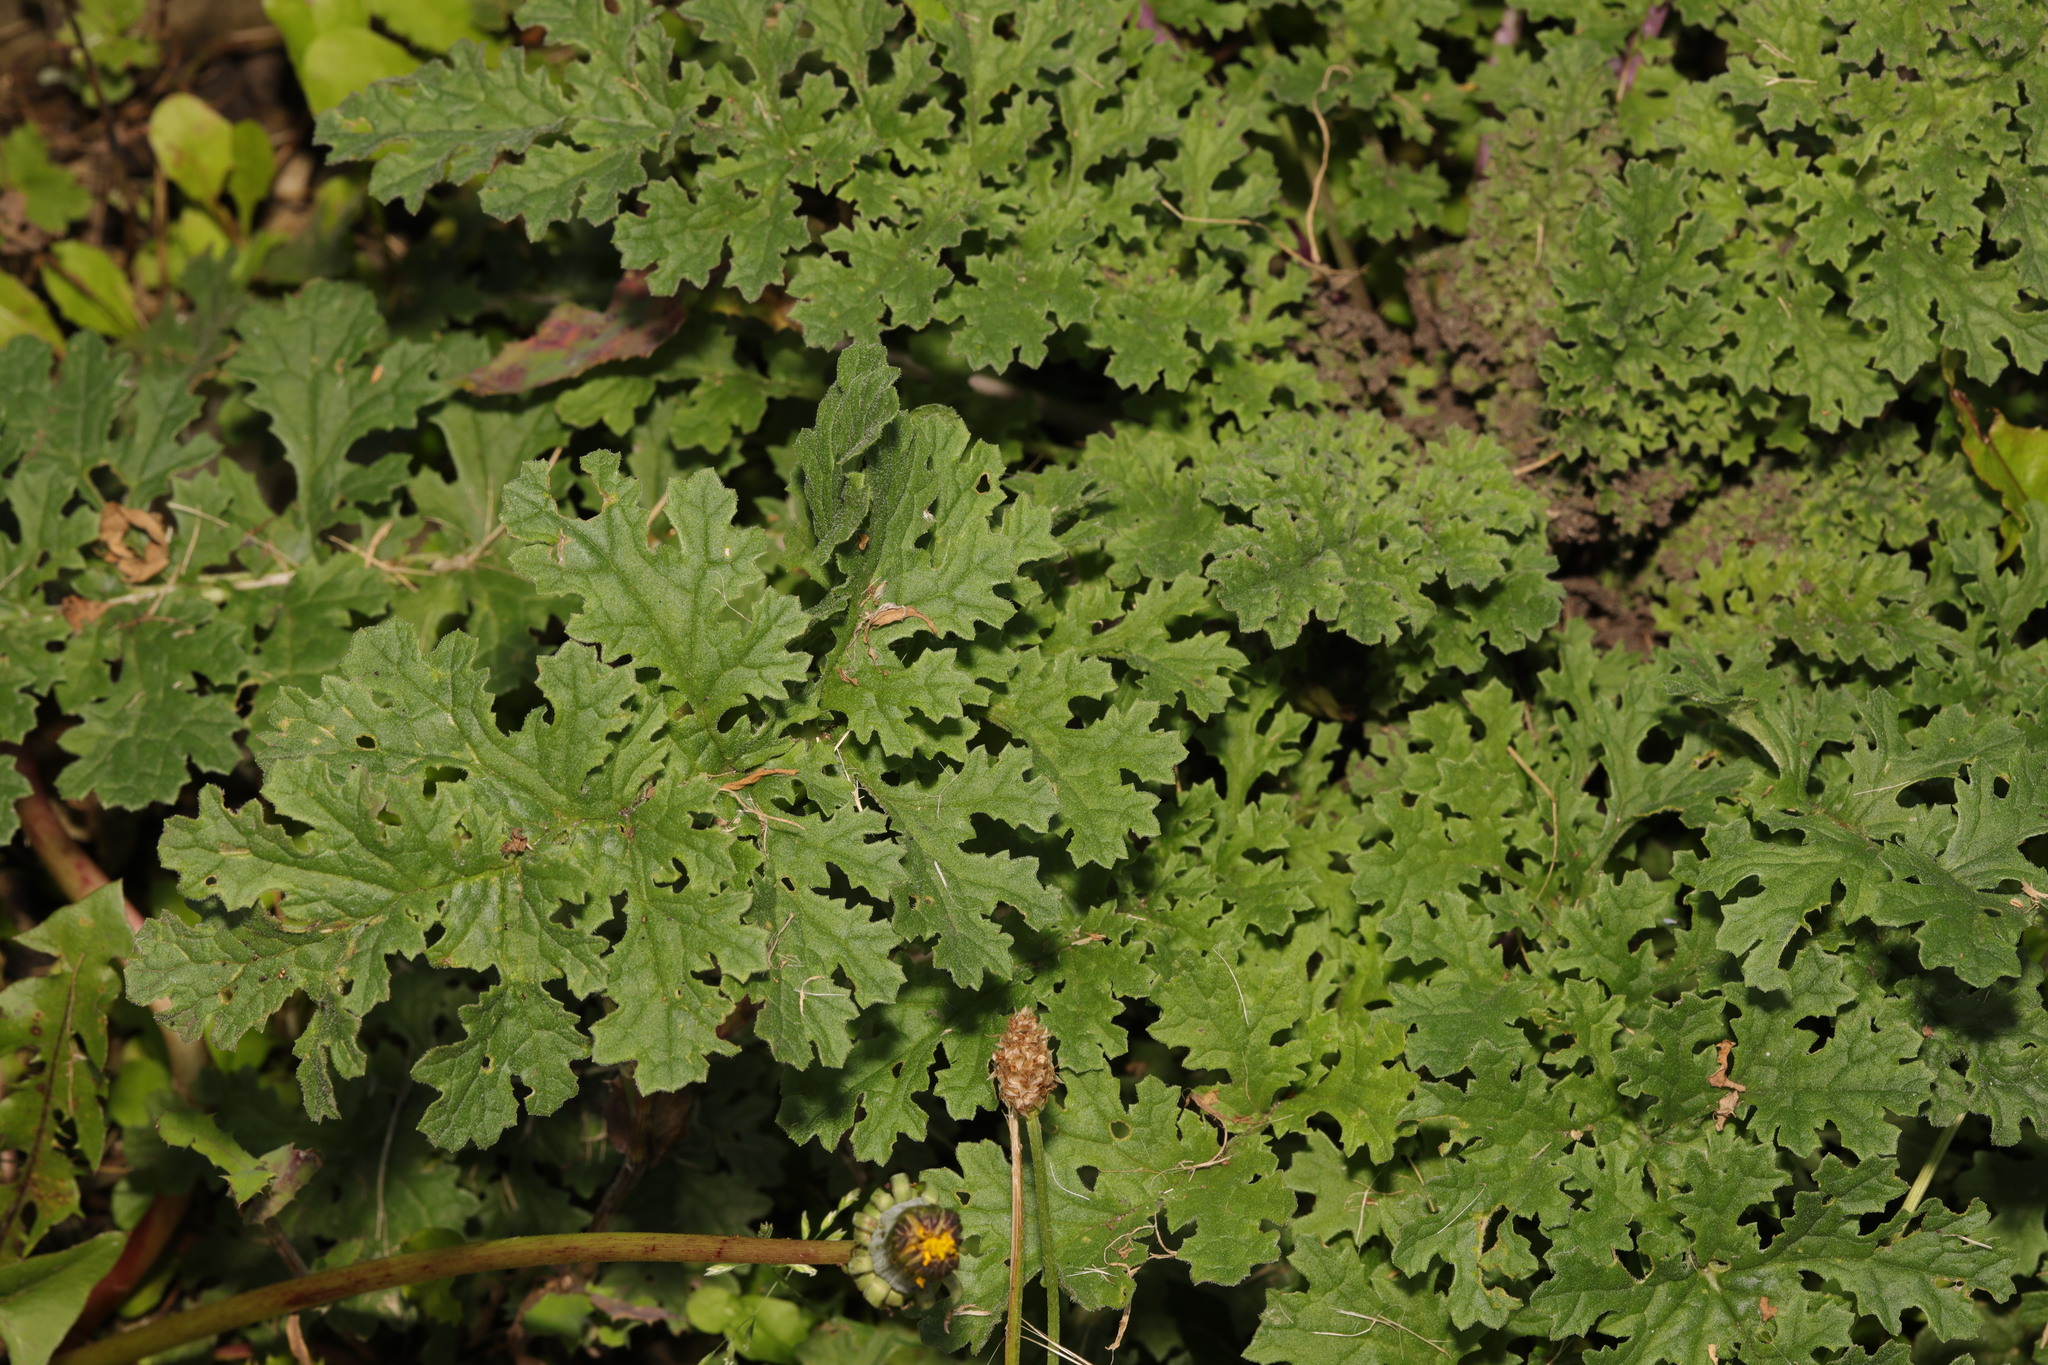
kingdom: Plantae
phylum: Tracheophyta
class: Magnoliopsida
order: Asterales
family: Asteraceae
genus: Jacobaea
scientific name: Jacobaea vulgaris
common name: Stinking willie
